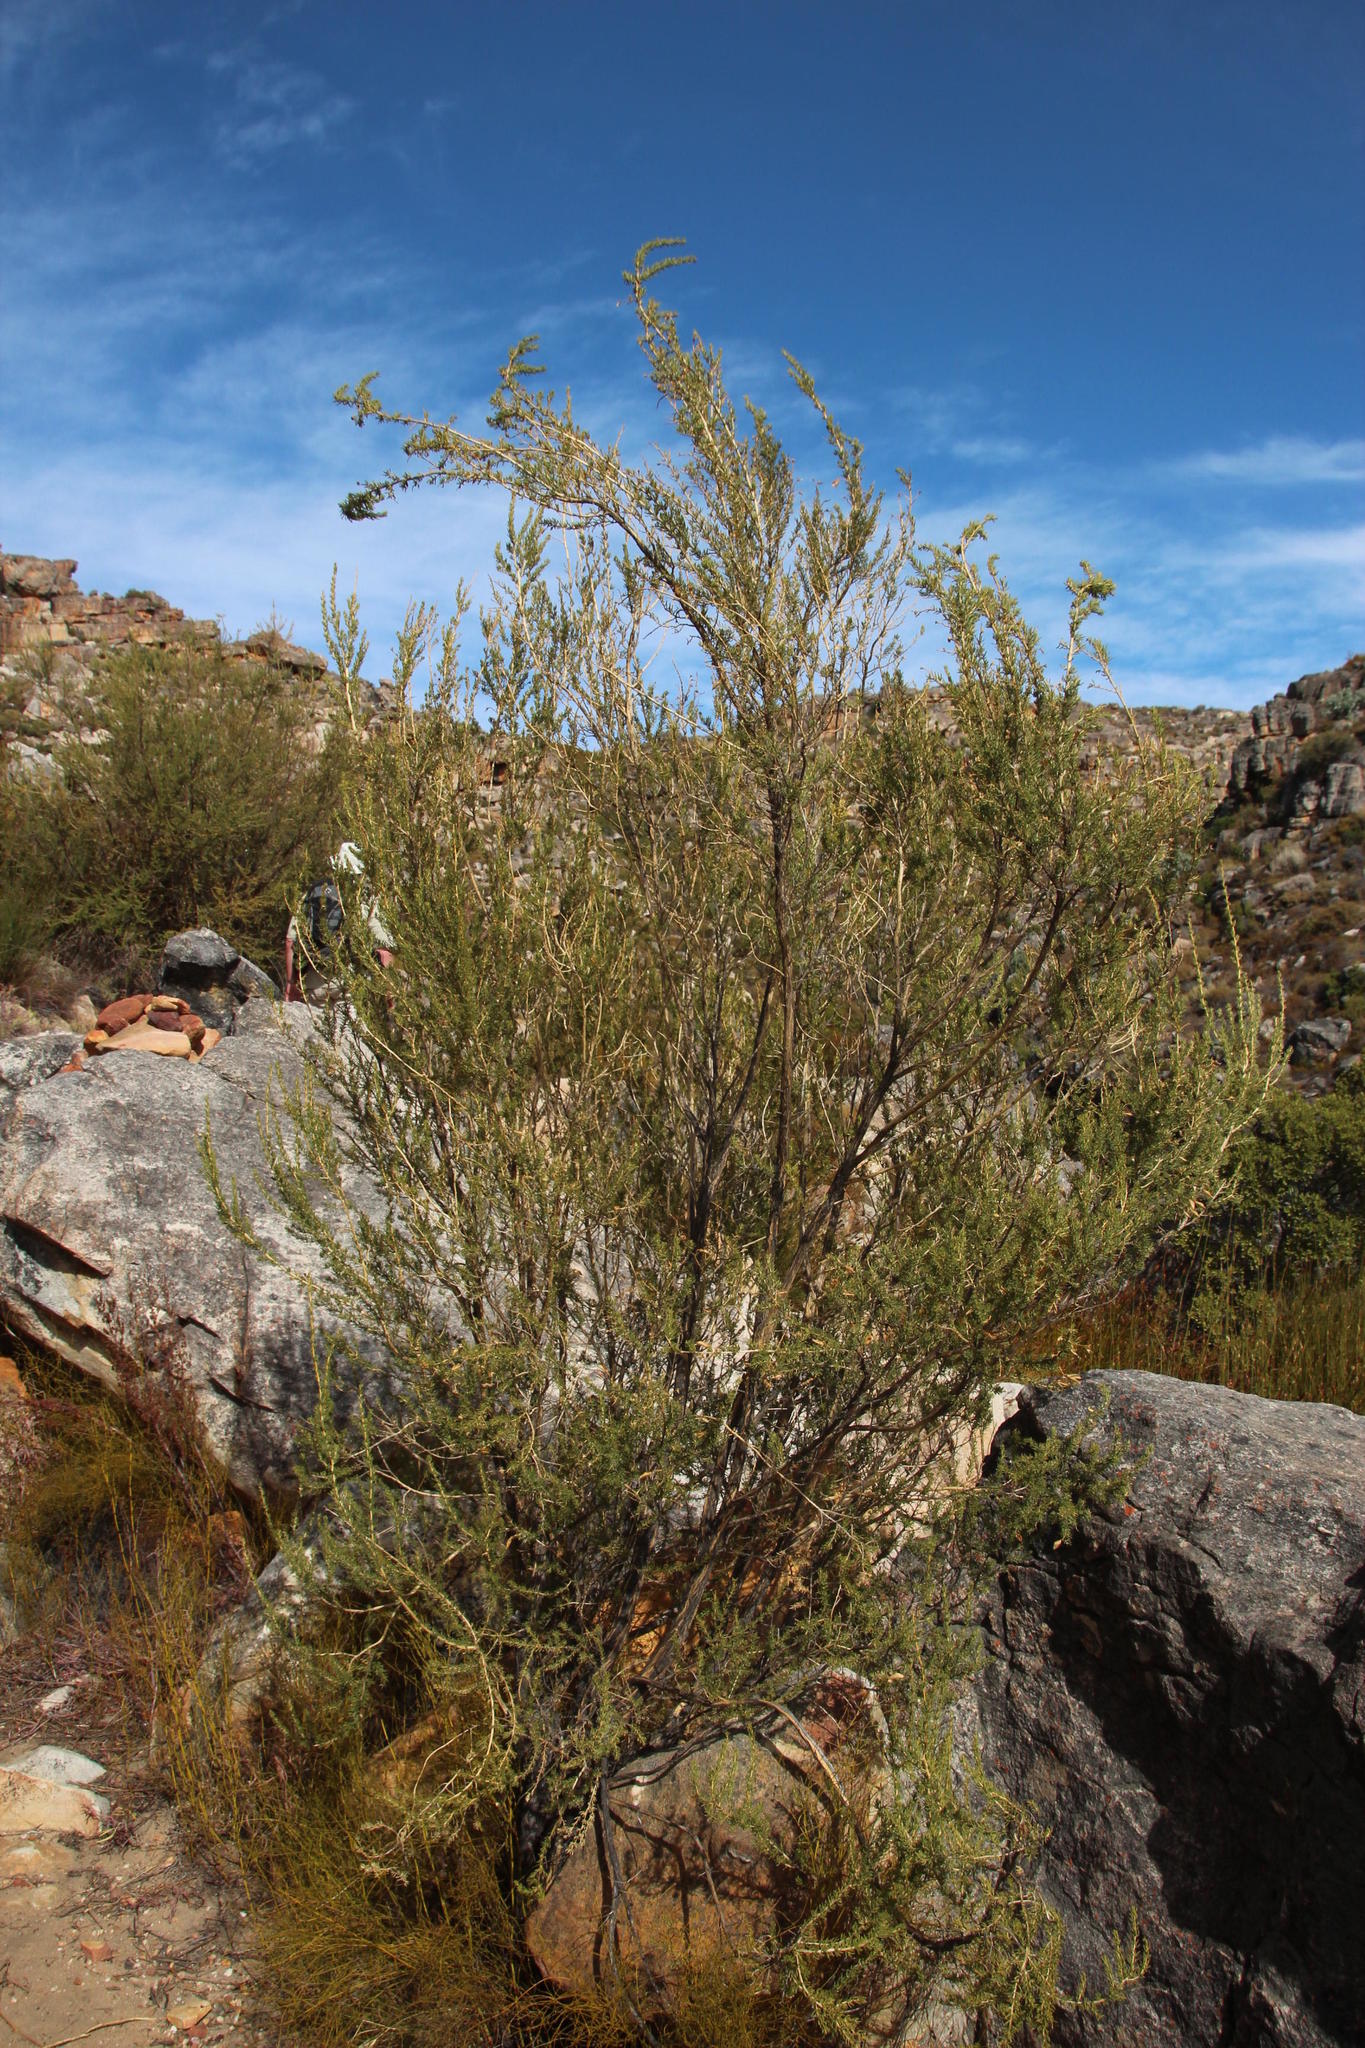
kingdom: Plantae
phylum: Tracheophyta
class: Magnoliopsida
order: Fabales
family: Fabaceae
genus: Aspalathus
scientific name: Aspalathus dianthopora
